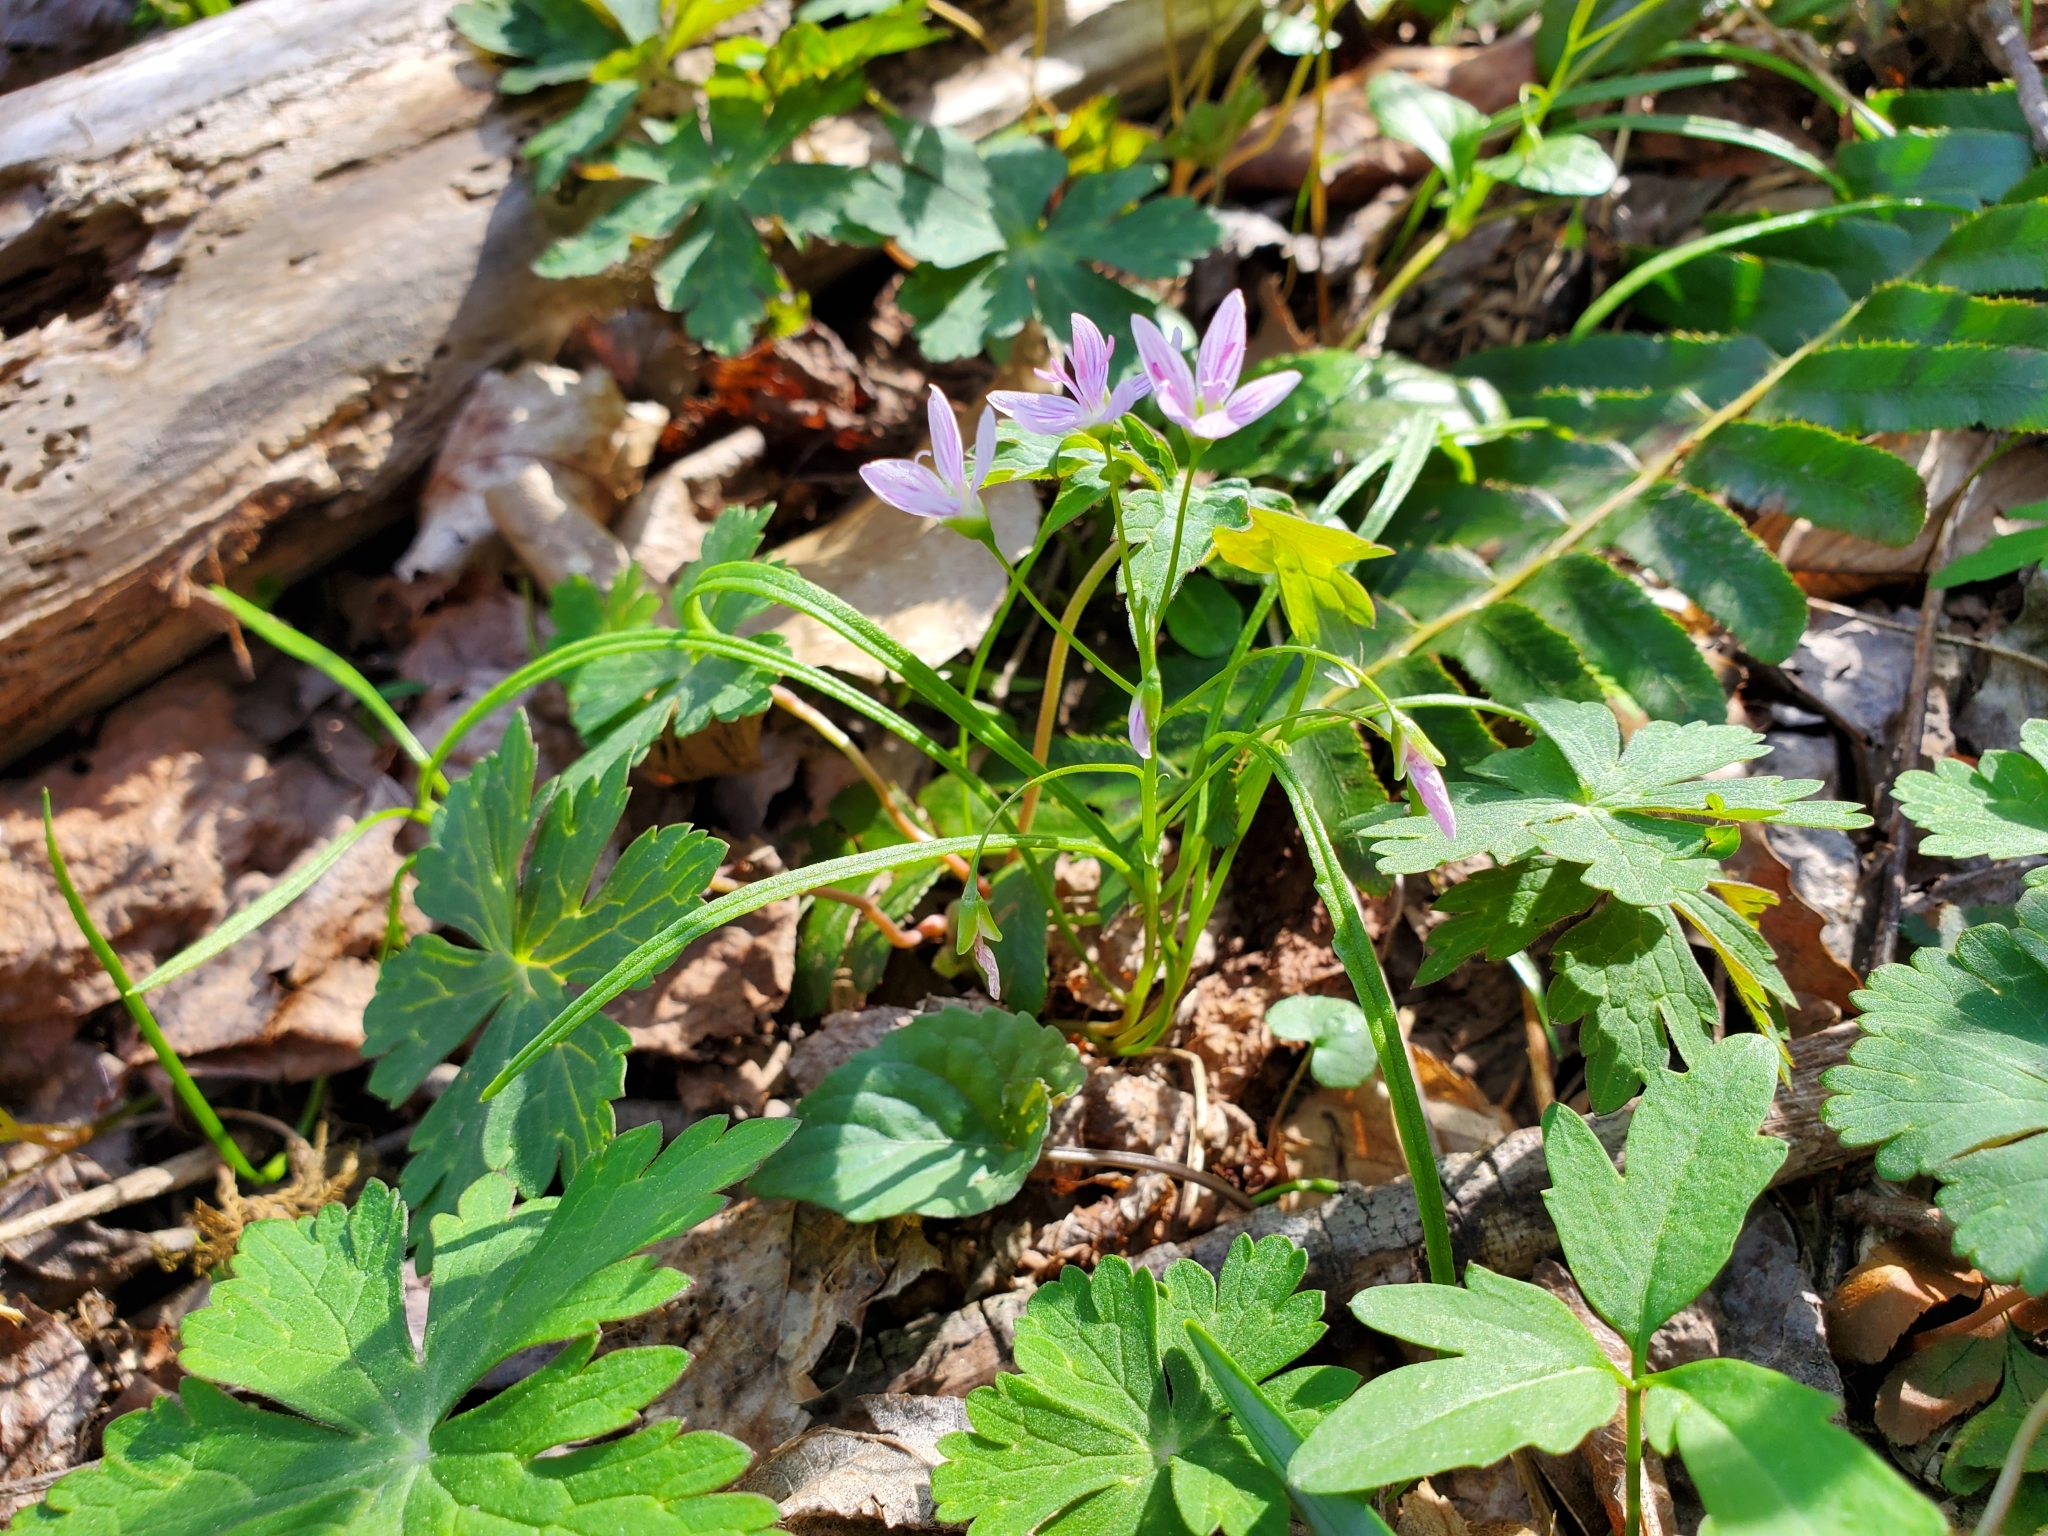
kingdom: Plantae
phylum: Tracheophyta
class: Magnoliopsida
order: Caryophyllales
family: Montiaceae
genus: Claytonia
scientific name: Claytonia virginica
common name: Virginia springbeauty
